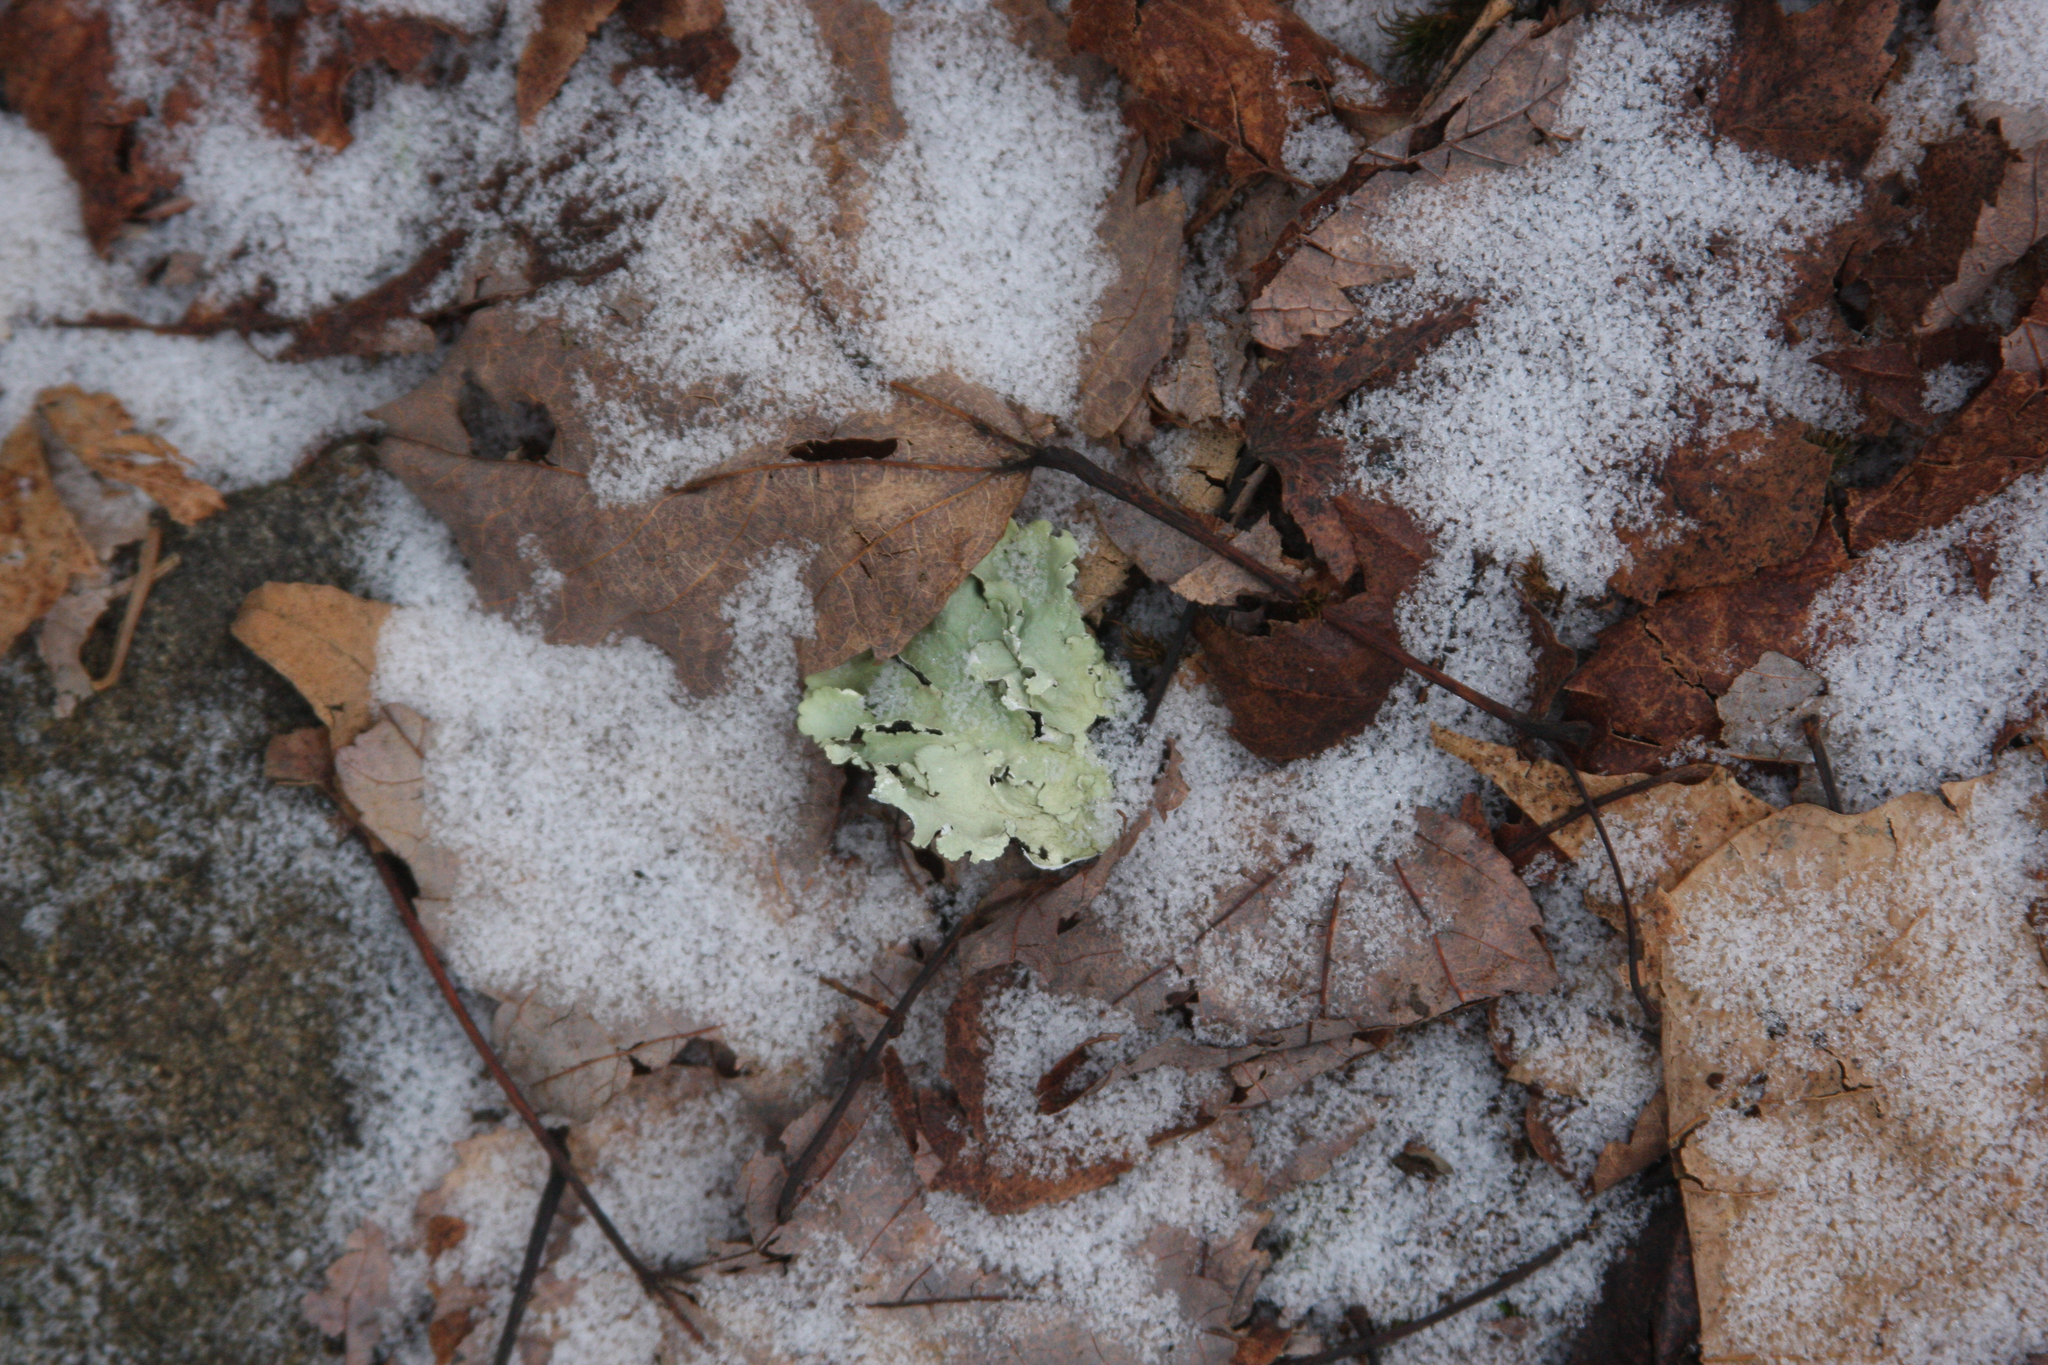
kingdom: Fungi
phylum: Ascomycota
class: Lecanoromycetes
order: Lecanorales
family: Parmeliaceae
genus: Flavoparmelia
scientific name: Flavoparmelia caperata
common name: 40-mile per hour lichen
